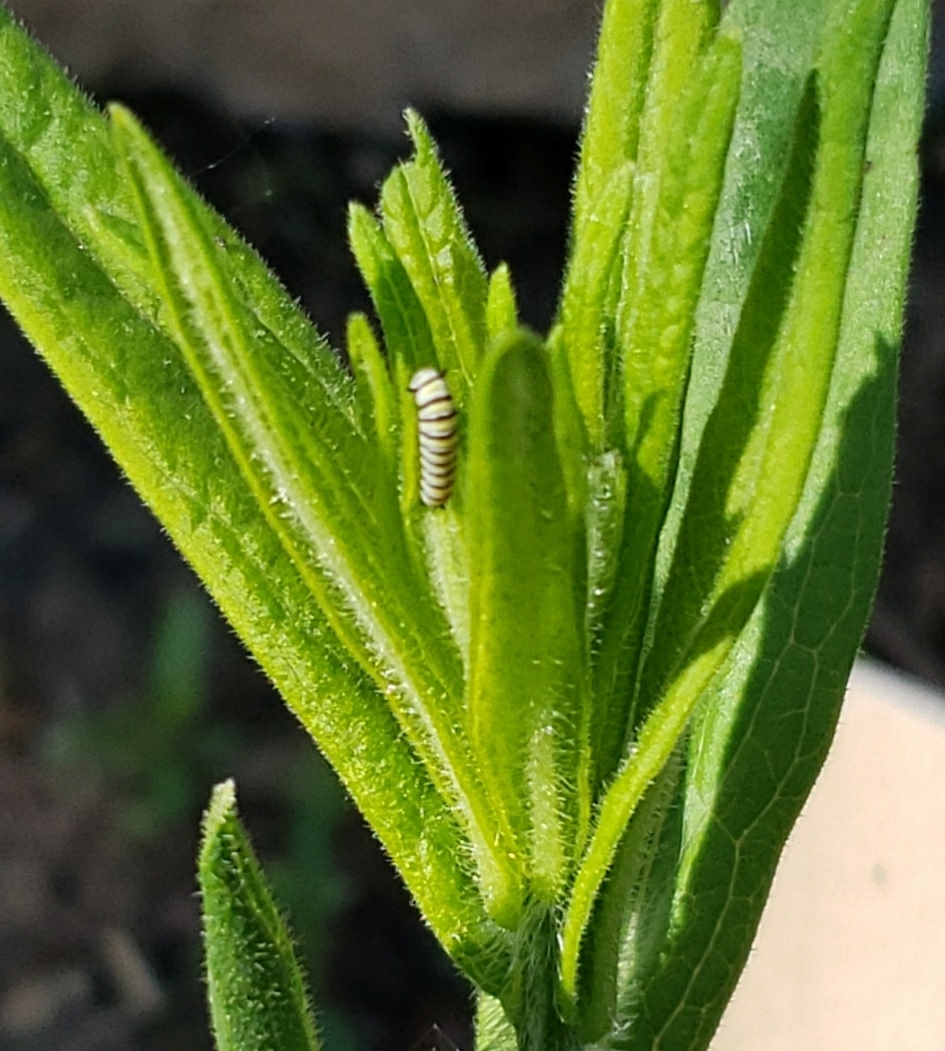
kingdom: Animalia
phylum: Arthropoda
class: Insecta
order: Lepidoptera
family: Nymphalidae
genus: Danaus
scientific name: Danaus plexippus
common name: Monarch
